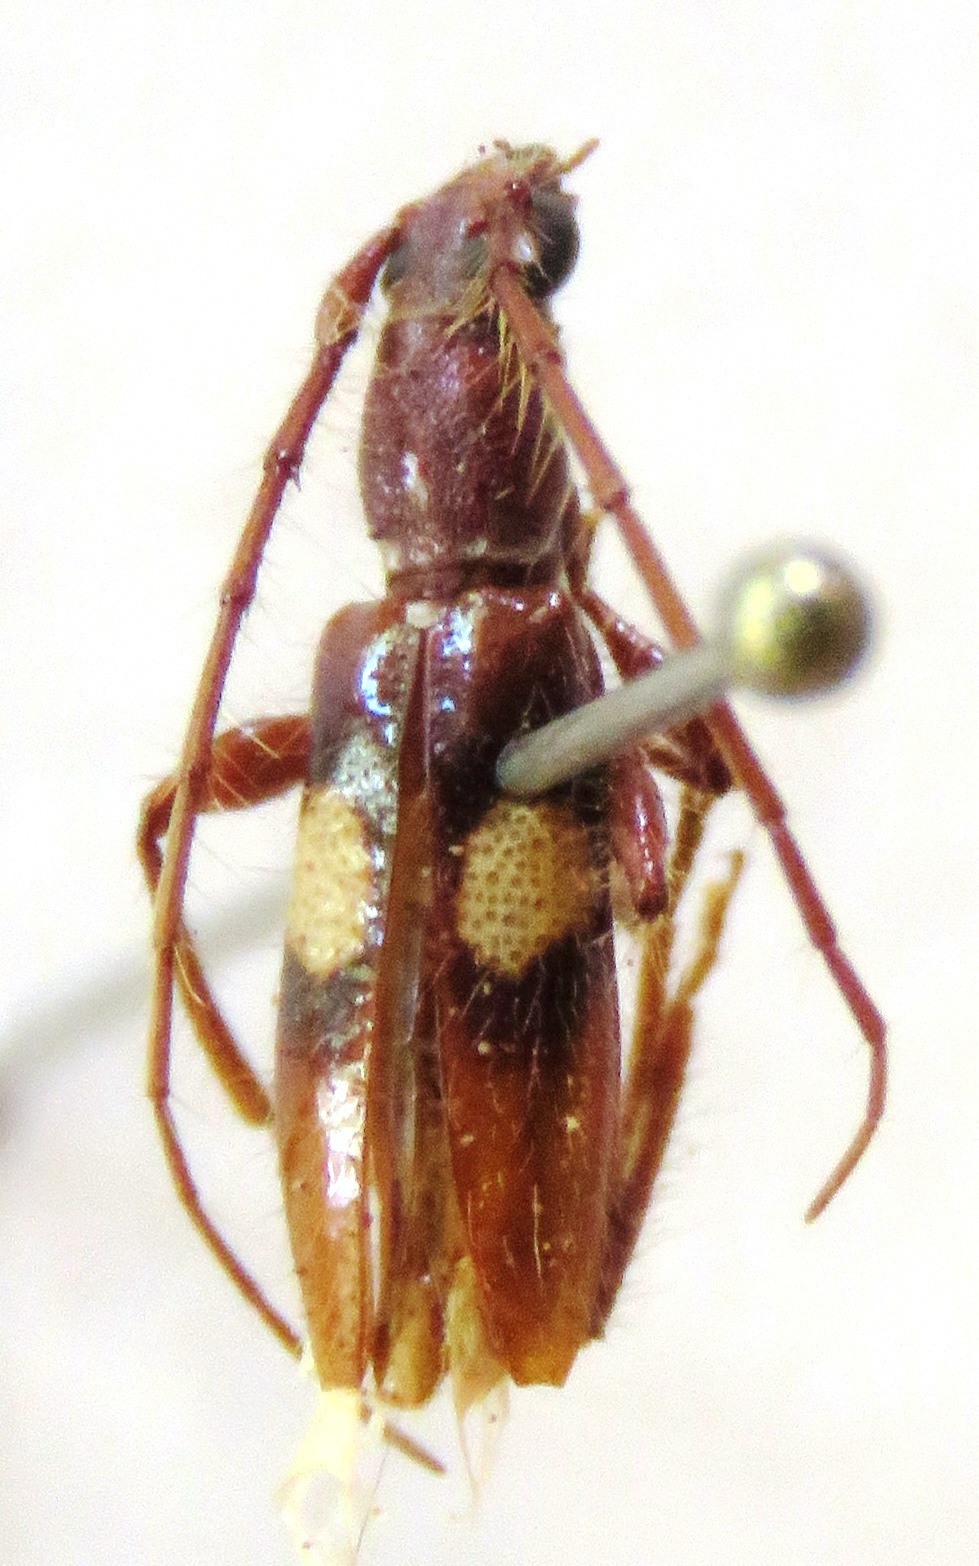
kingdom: Animalia
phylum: Arthropoda
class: Insecta
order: Coleoptera
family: Cerambycidae
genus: Micropsyrassa
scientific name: Micropsyrassa bimaculata
